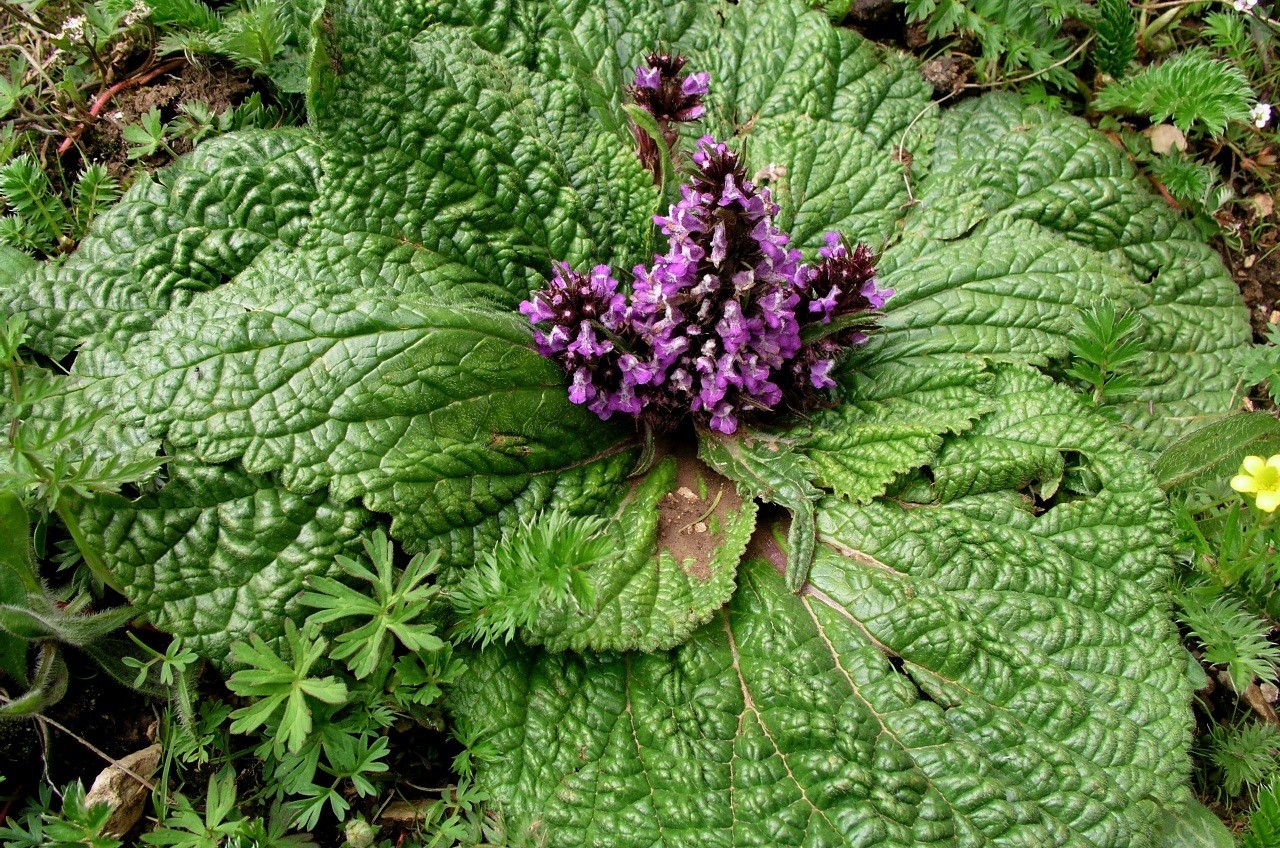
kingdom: Plantae
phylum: Tracheophyta
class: Magnoliopsida
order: Lamiales
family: Lamiaceae
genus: Phlomoides
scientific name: Phlomoides rotata
